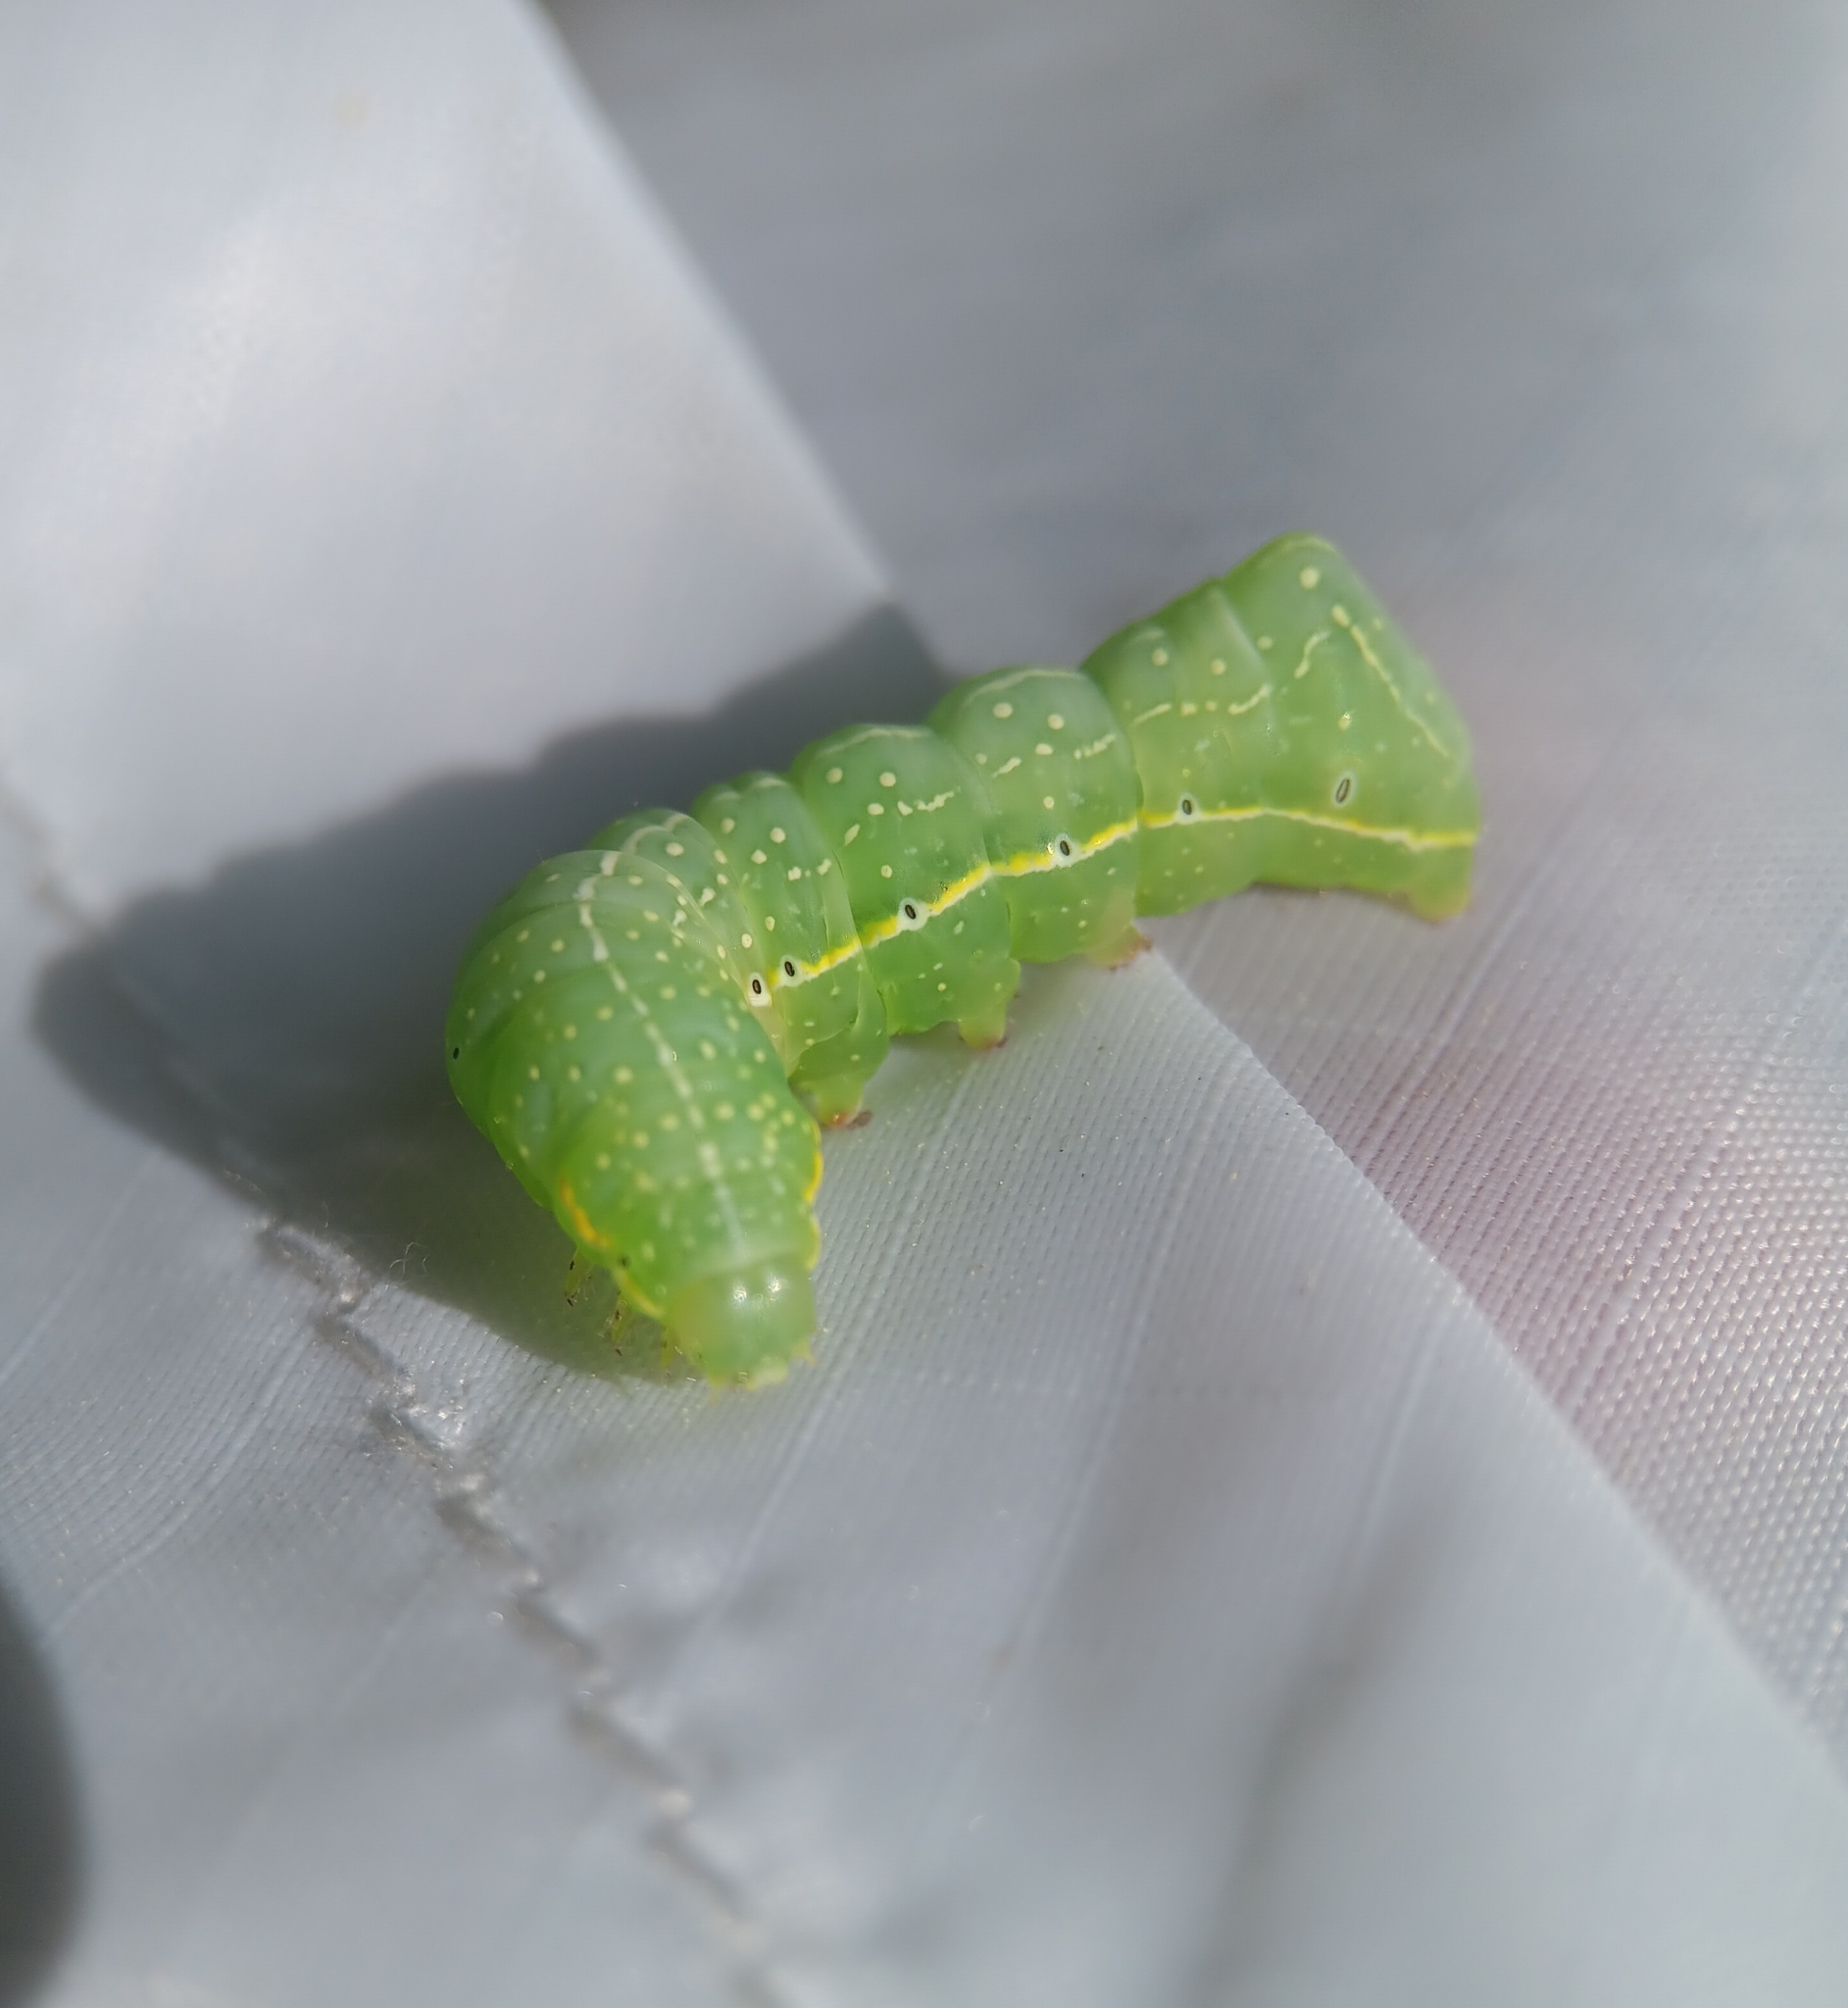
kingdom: Animalia
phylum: Arthropoda
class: Insecta
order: Lepidoptera
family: Noctuidae
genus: Amphipyra
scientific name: Amphipyra pyramidoides
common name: American copper underwing
